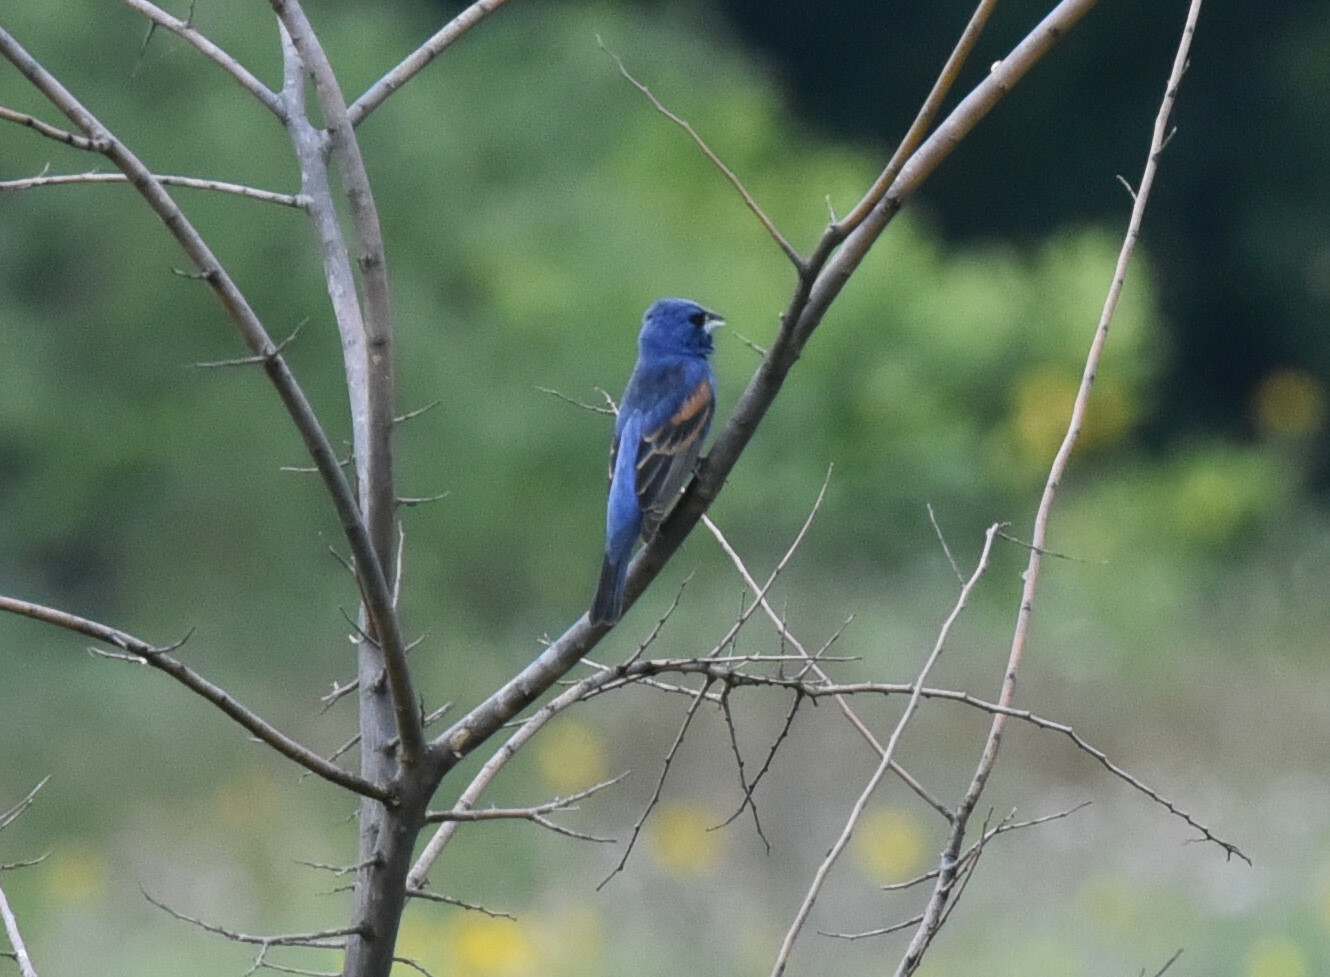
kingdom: Animalia
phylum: Chordata
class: Aves
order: Passeriformes
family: Cardinalidae
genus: Passerina
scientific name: Passerina caerulea
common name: Blue grosbeak
